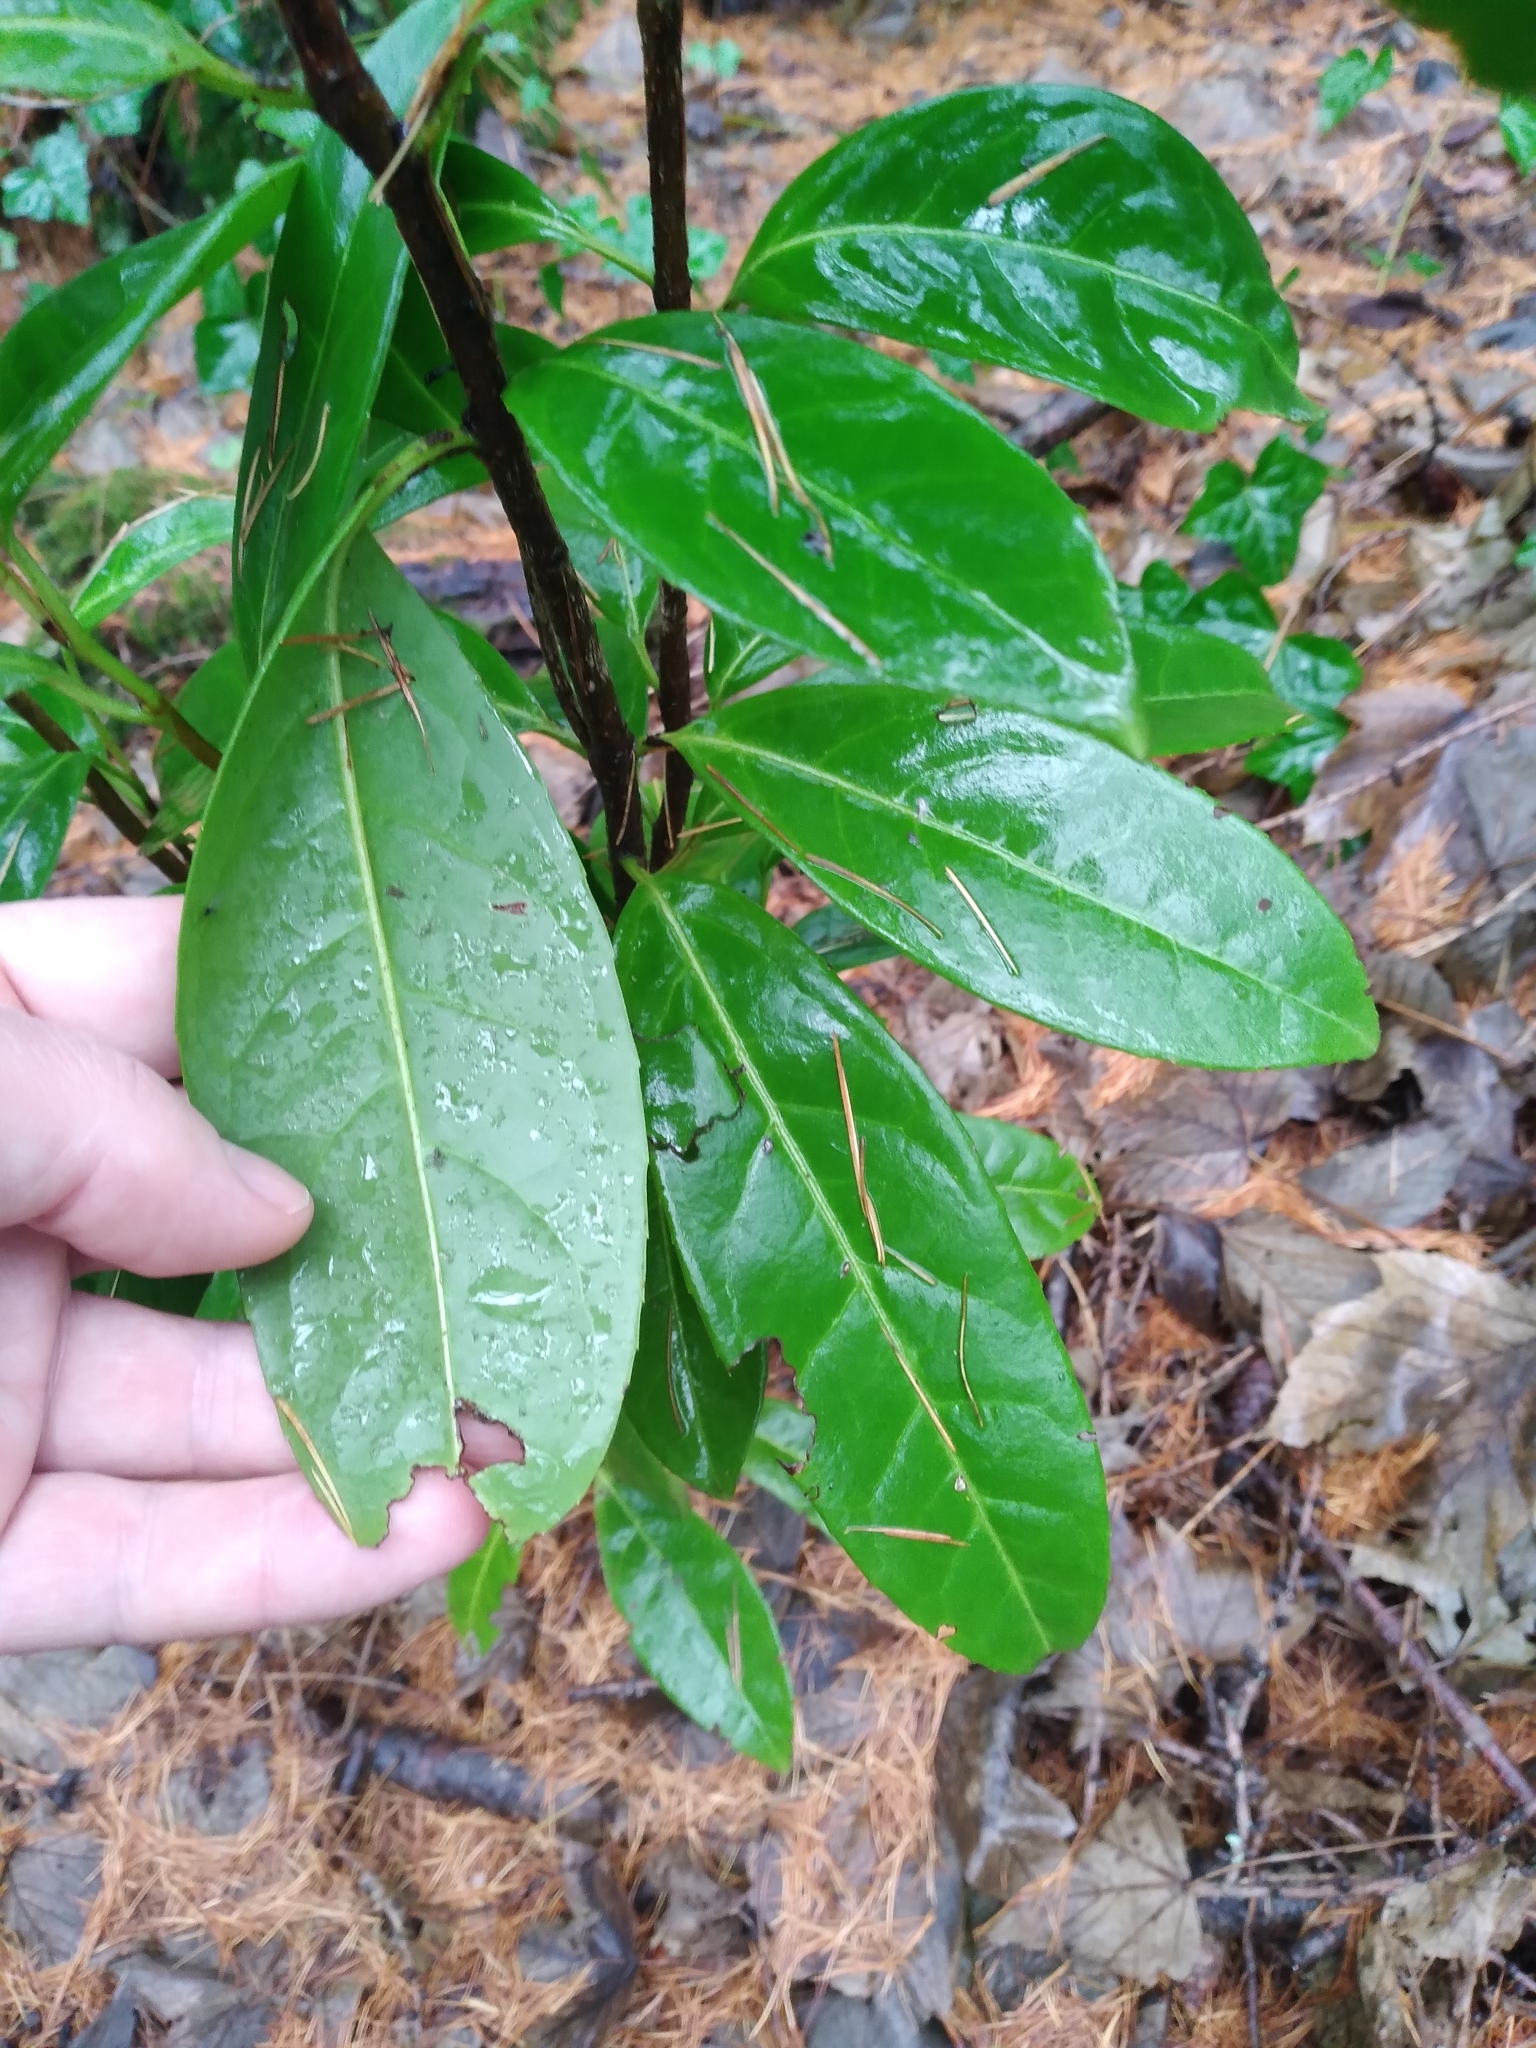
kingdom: Plantae
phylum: Tracheophyta
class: Magnoliopsida
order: Rosales
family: Rosaceae
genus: Prunus
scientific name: Prunus laurocerasus
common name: Cherry laurel
